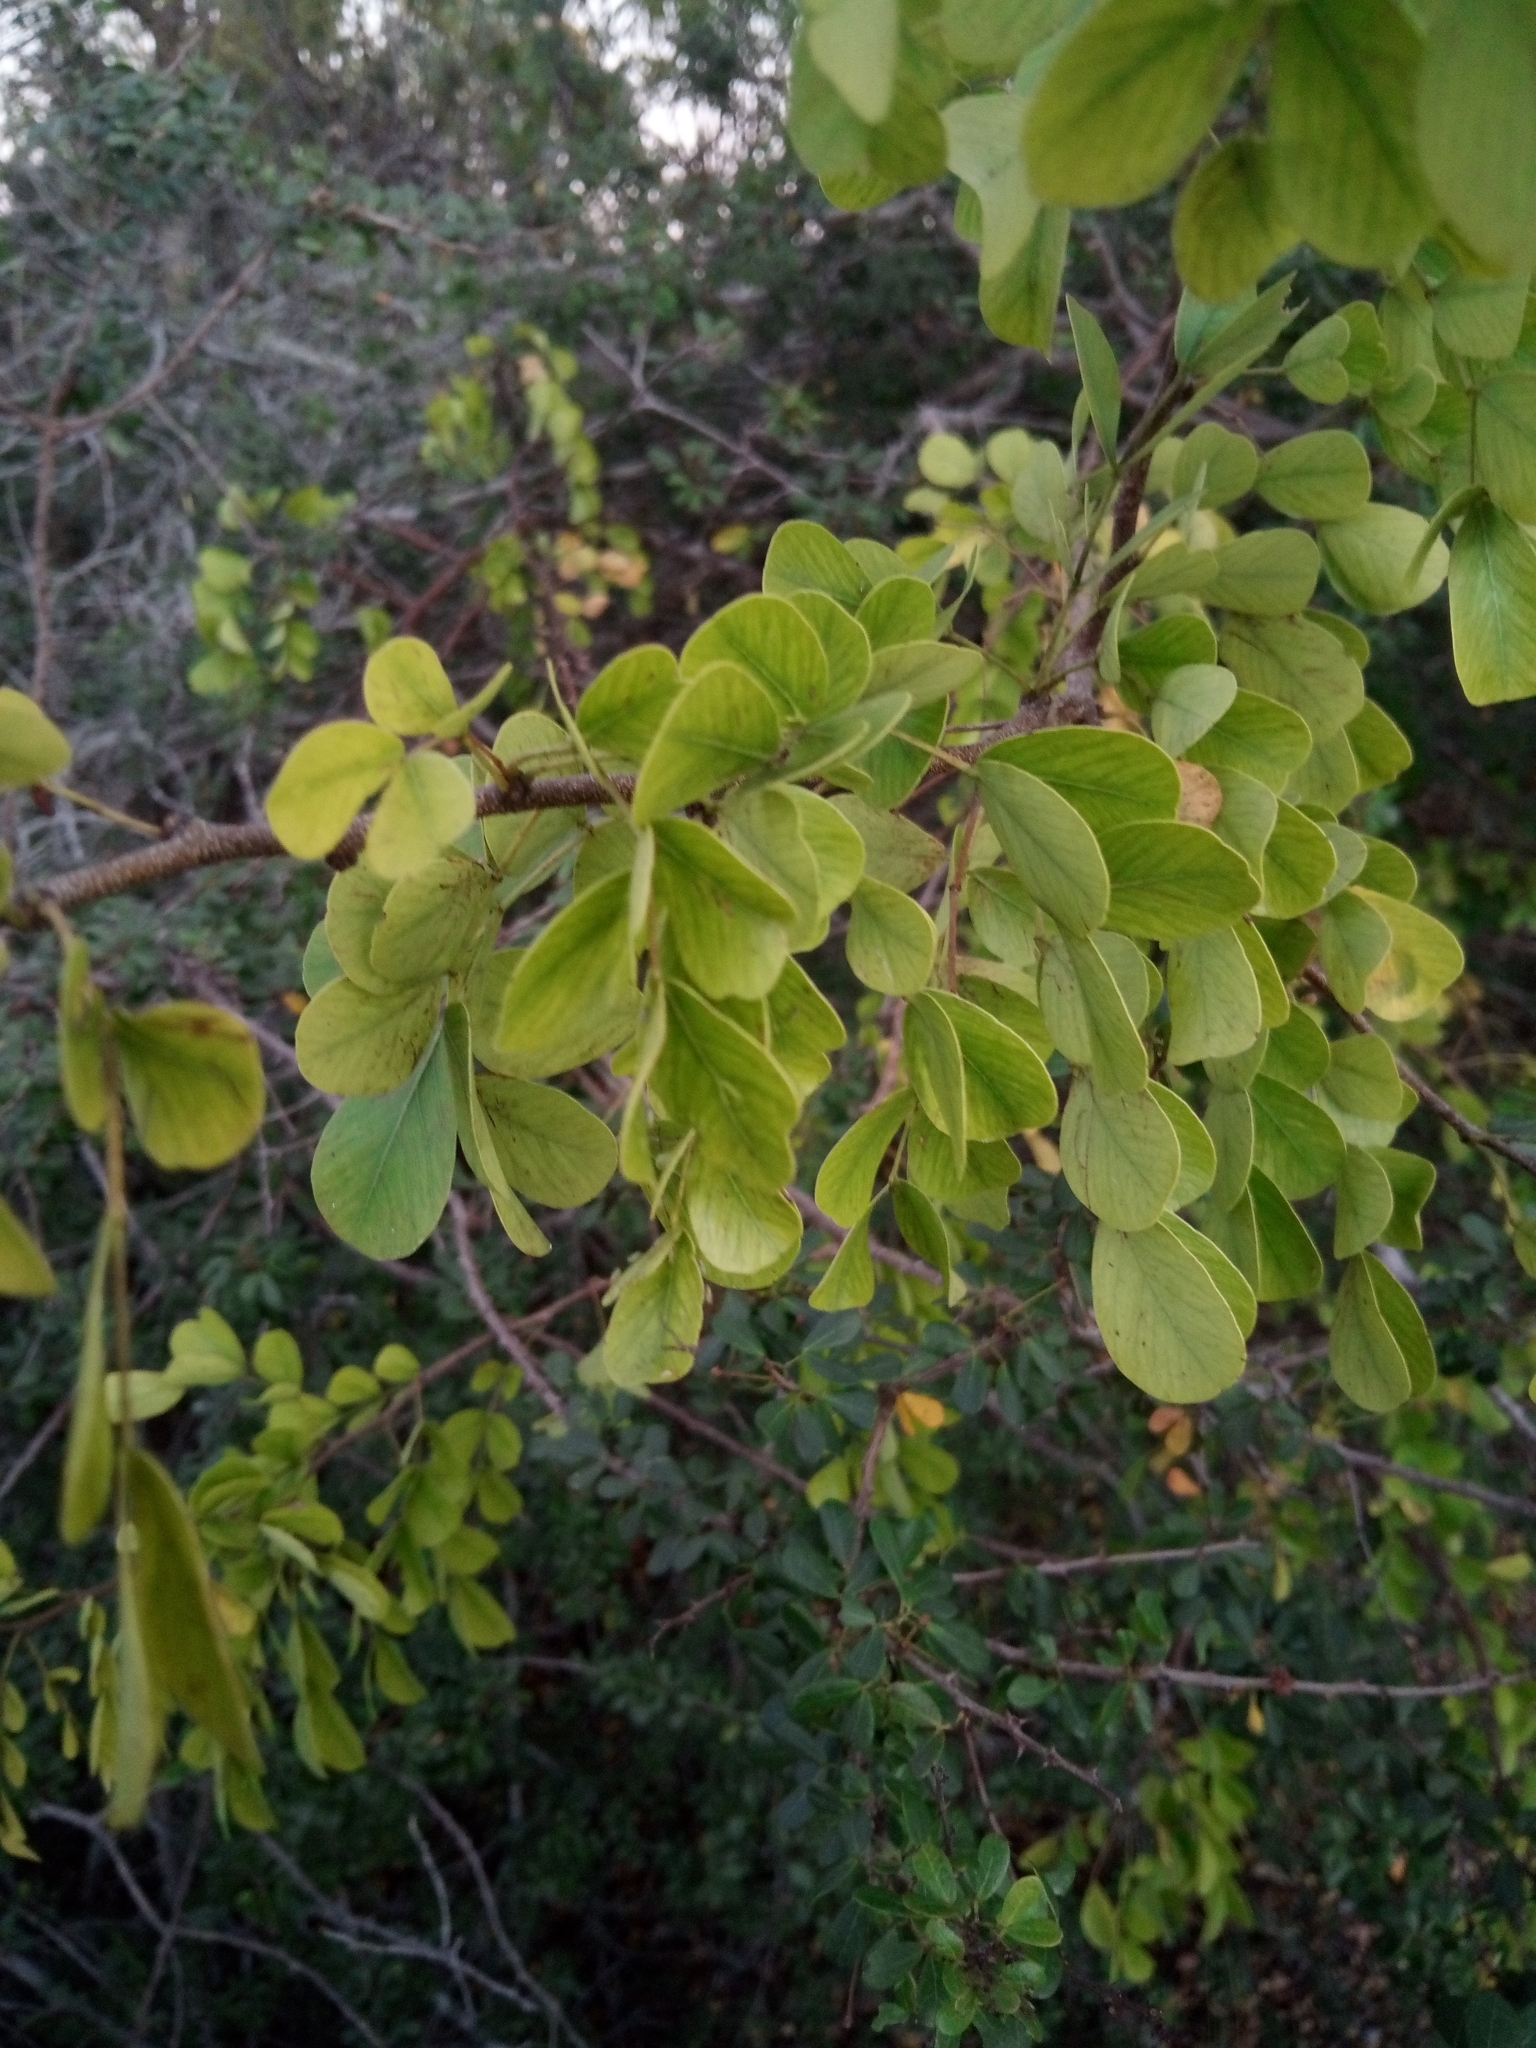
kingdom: Plantae
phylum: Tracheophyta
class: Magnoliopsida
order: Fabales
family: Fabaceae
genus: Haematoxylum
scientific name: Haematoxylum campechianum
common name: Logwood
